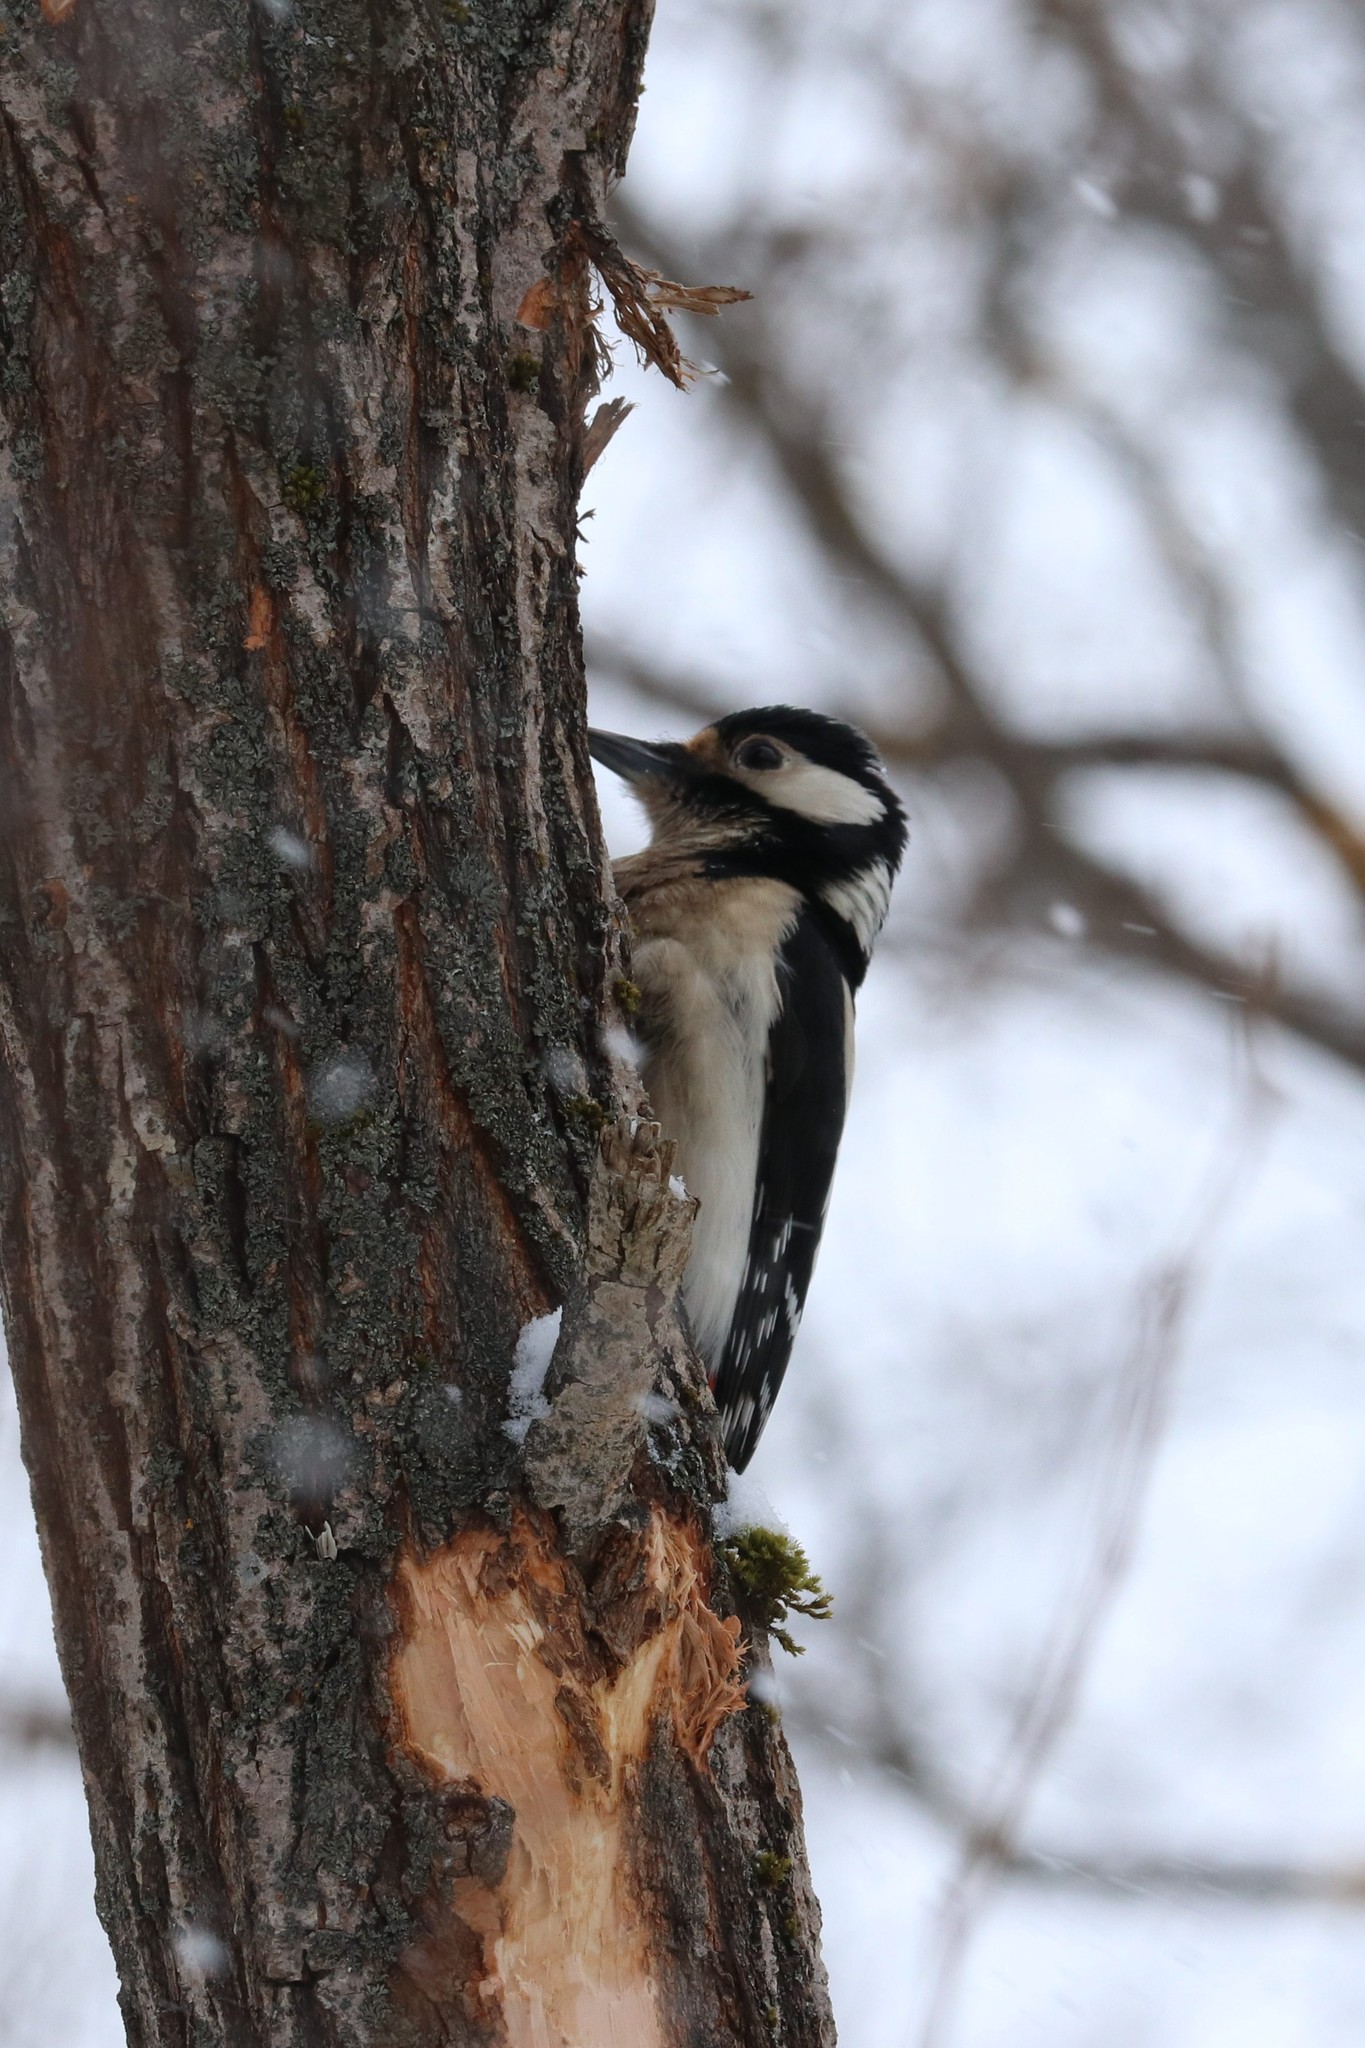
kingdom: Animalia
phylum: Chordata
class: Aves
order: Piciformes
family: Picidae
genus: Dendrocopos
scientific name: Dendrocopos major
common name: Great spotted woodpecker
